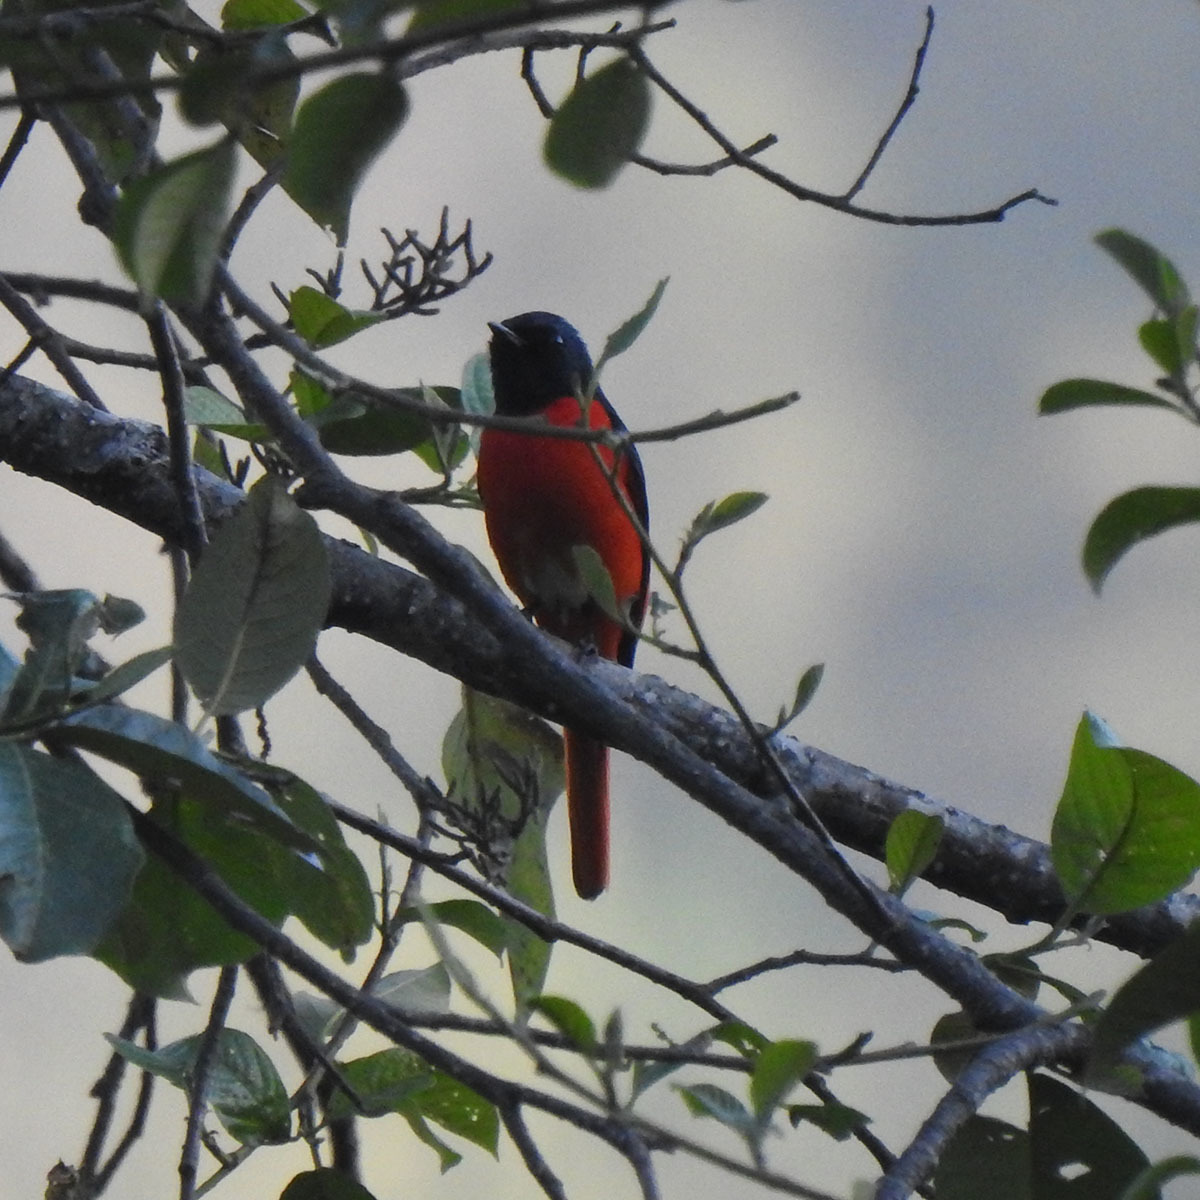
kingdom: Animalia
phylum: Chordata
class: Aves
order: Passeriformes
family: Campephagidae
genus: Pericrocotus
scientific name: Pericrocotus speciosus
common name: Scarlet minivet
